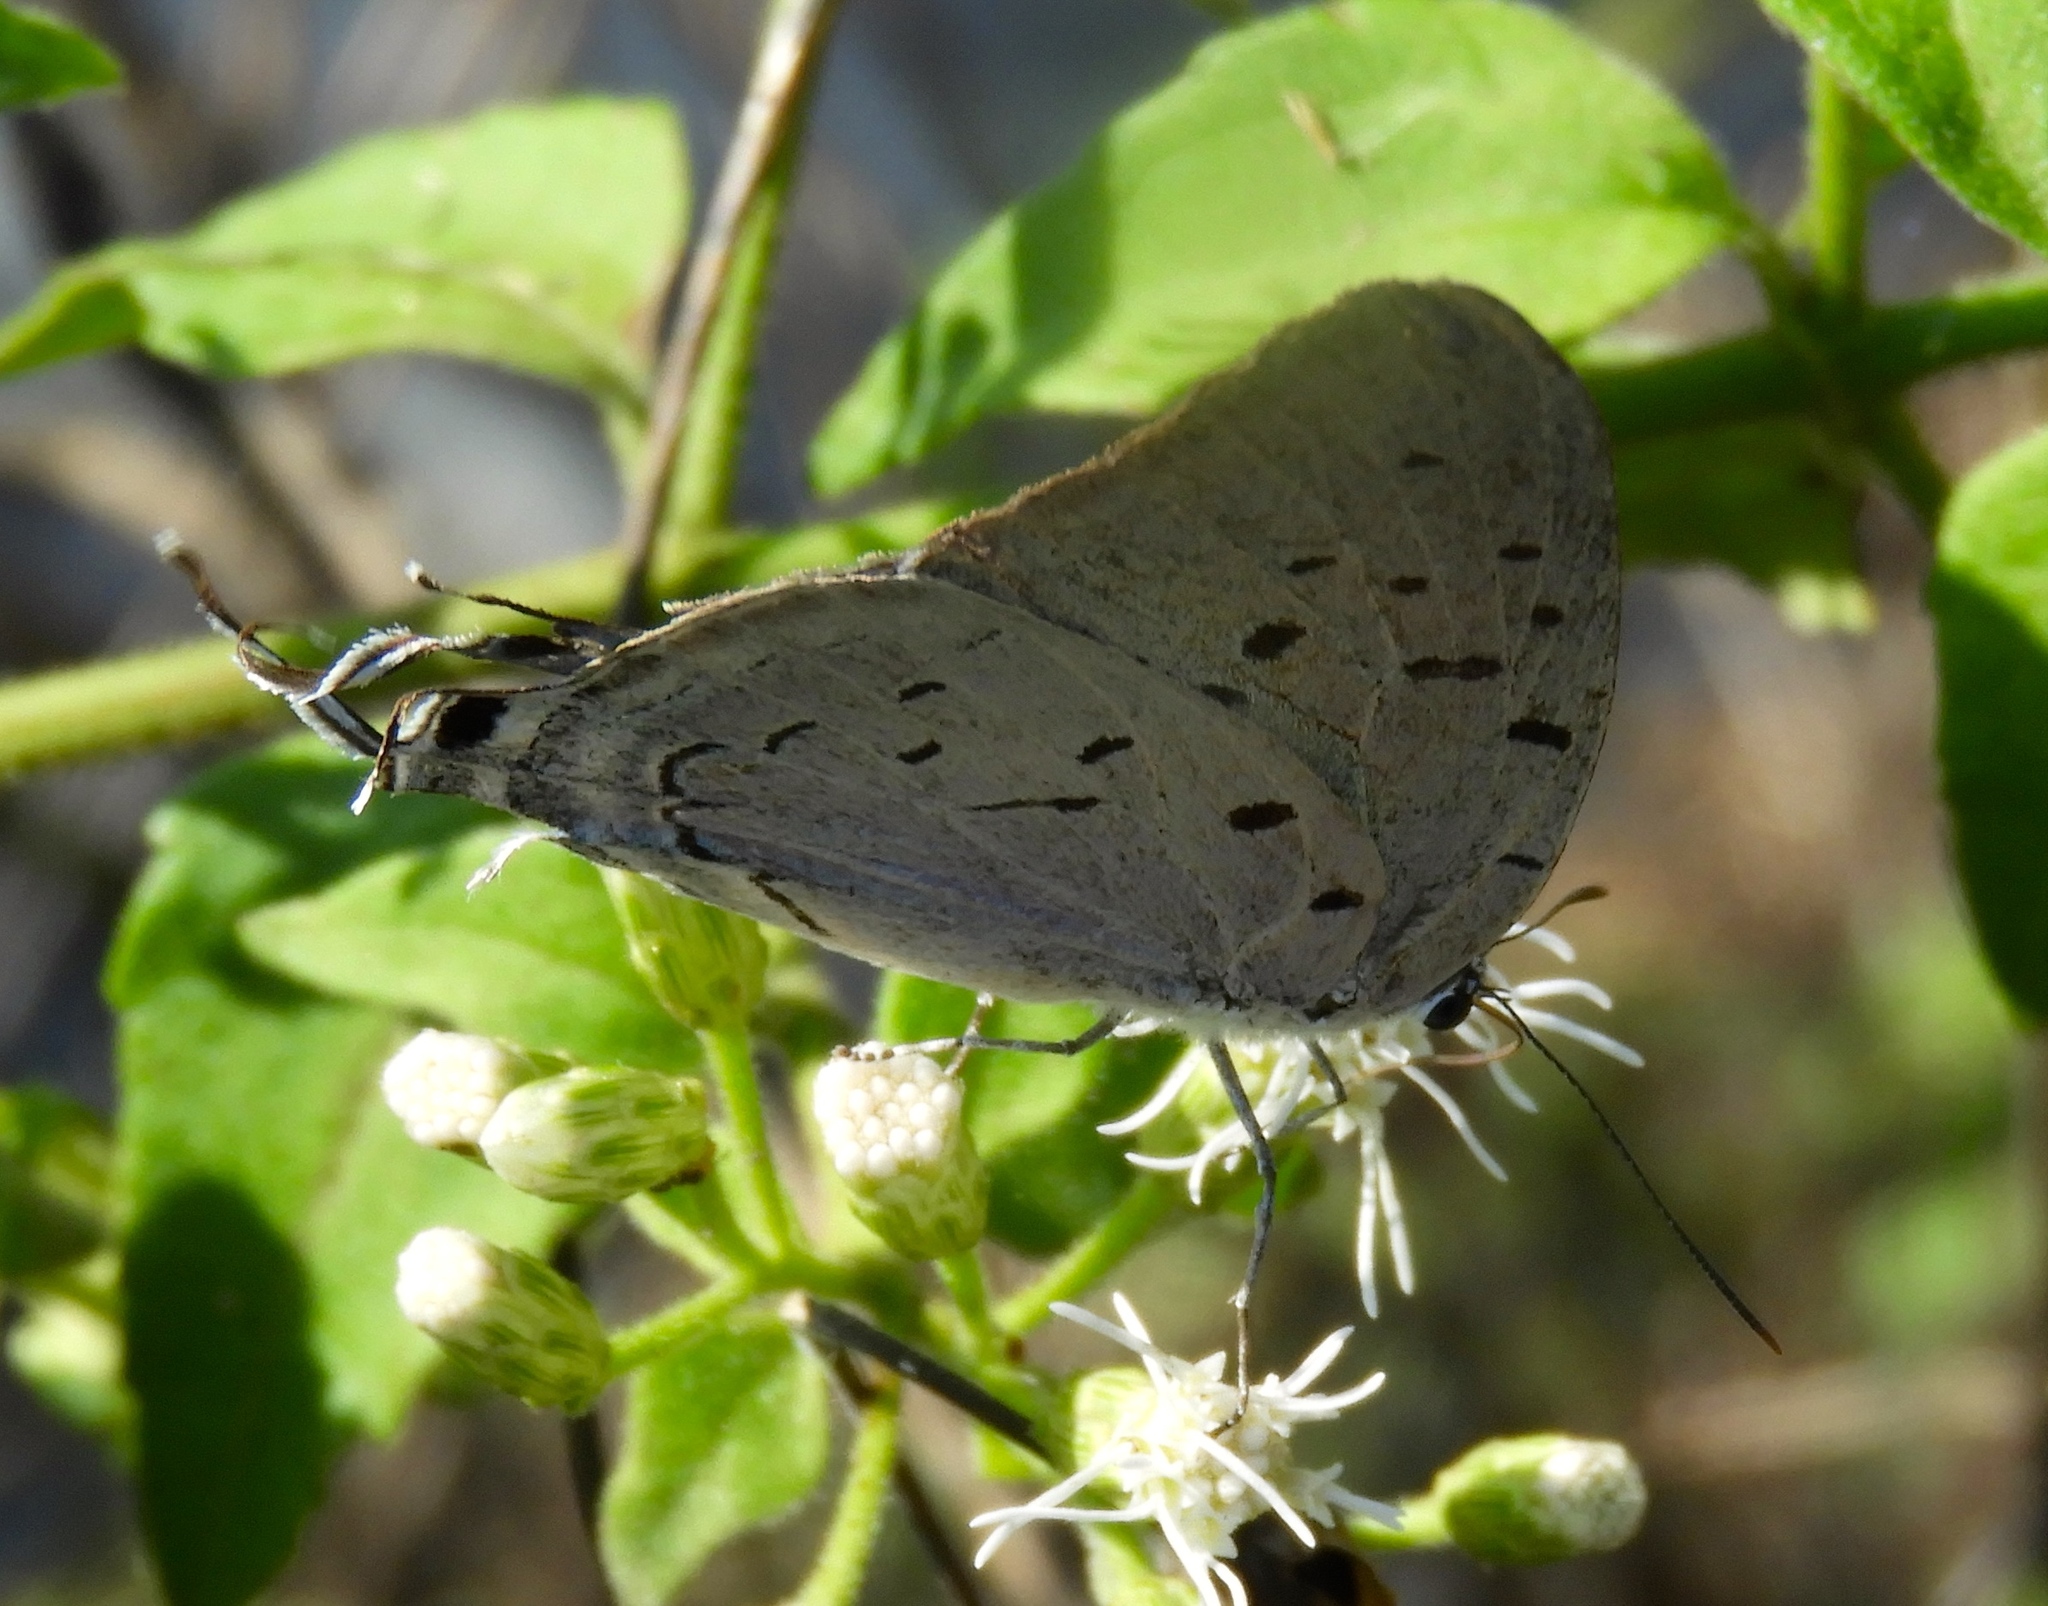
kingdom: Animalia
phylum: Arthropoda
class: Insecta
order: Lepidoptera
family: Lycaenidae
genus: Pseudolycaena
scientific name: Pseudolycaena damo
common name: Sky-blue hairstreak
